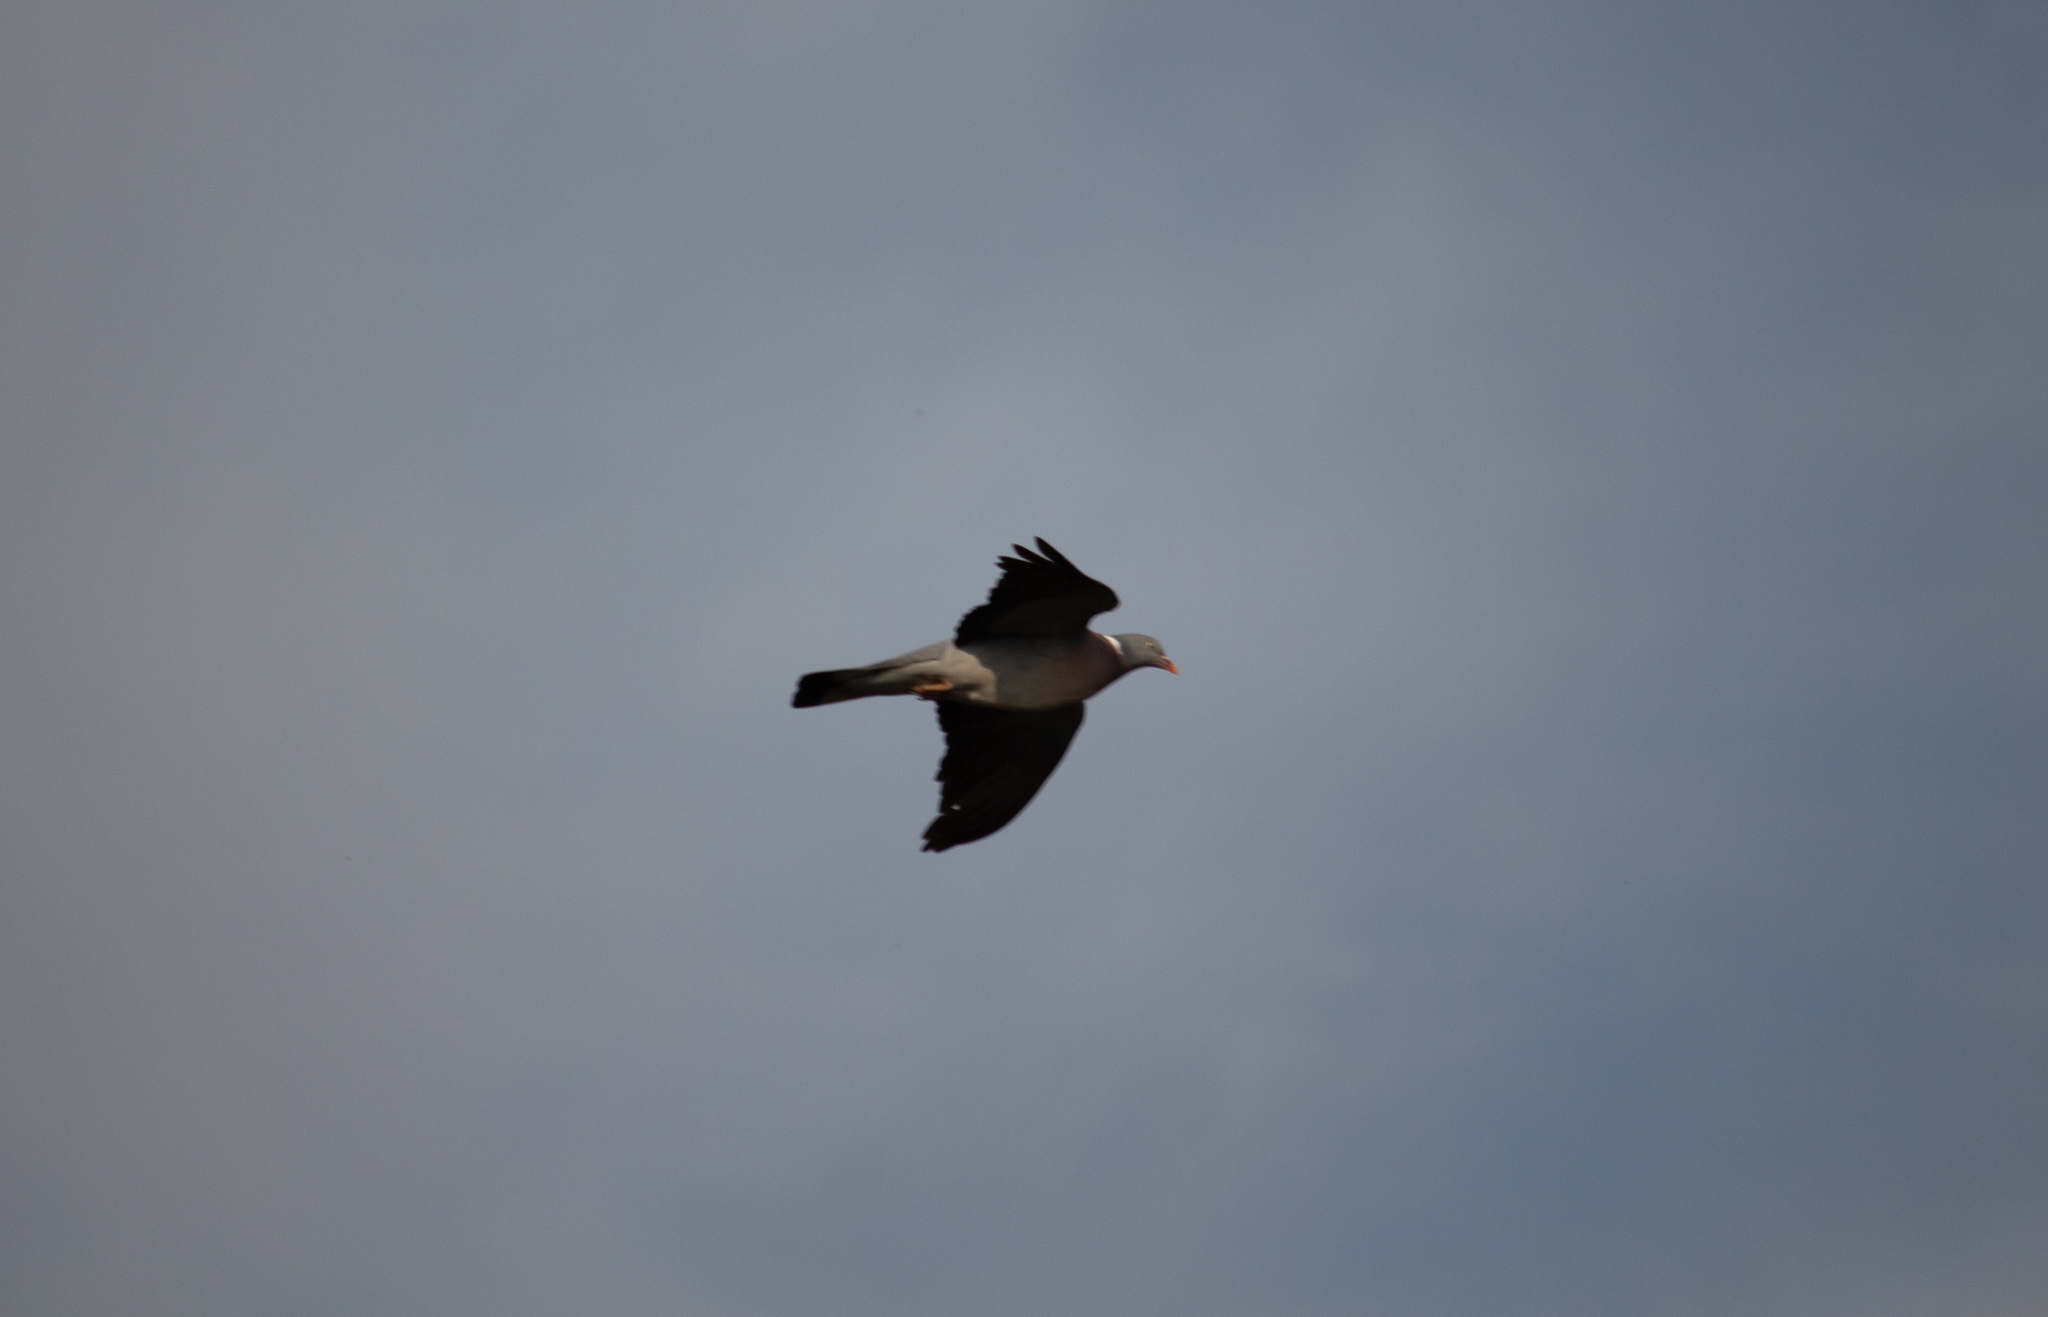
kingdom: Animalia
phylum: Chordata
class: Aves
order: Columbiformes
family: Columbidae
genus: Columba
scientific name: Columba palumbus
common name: Common wood pigeon
